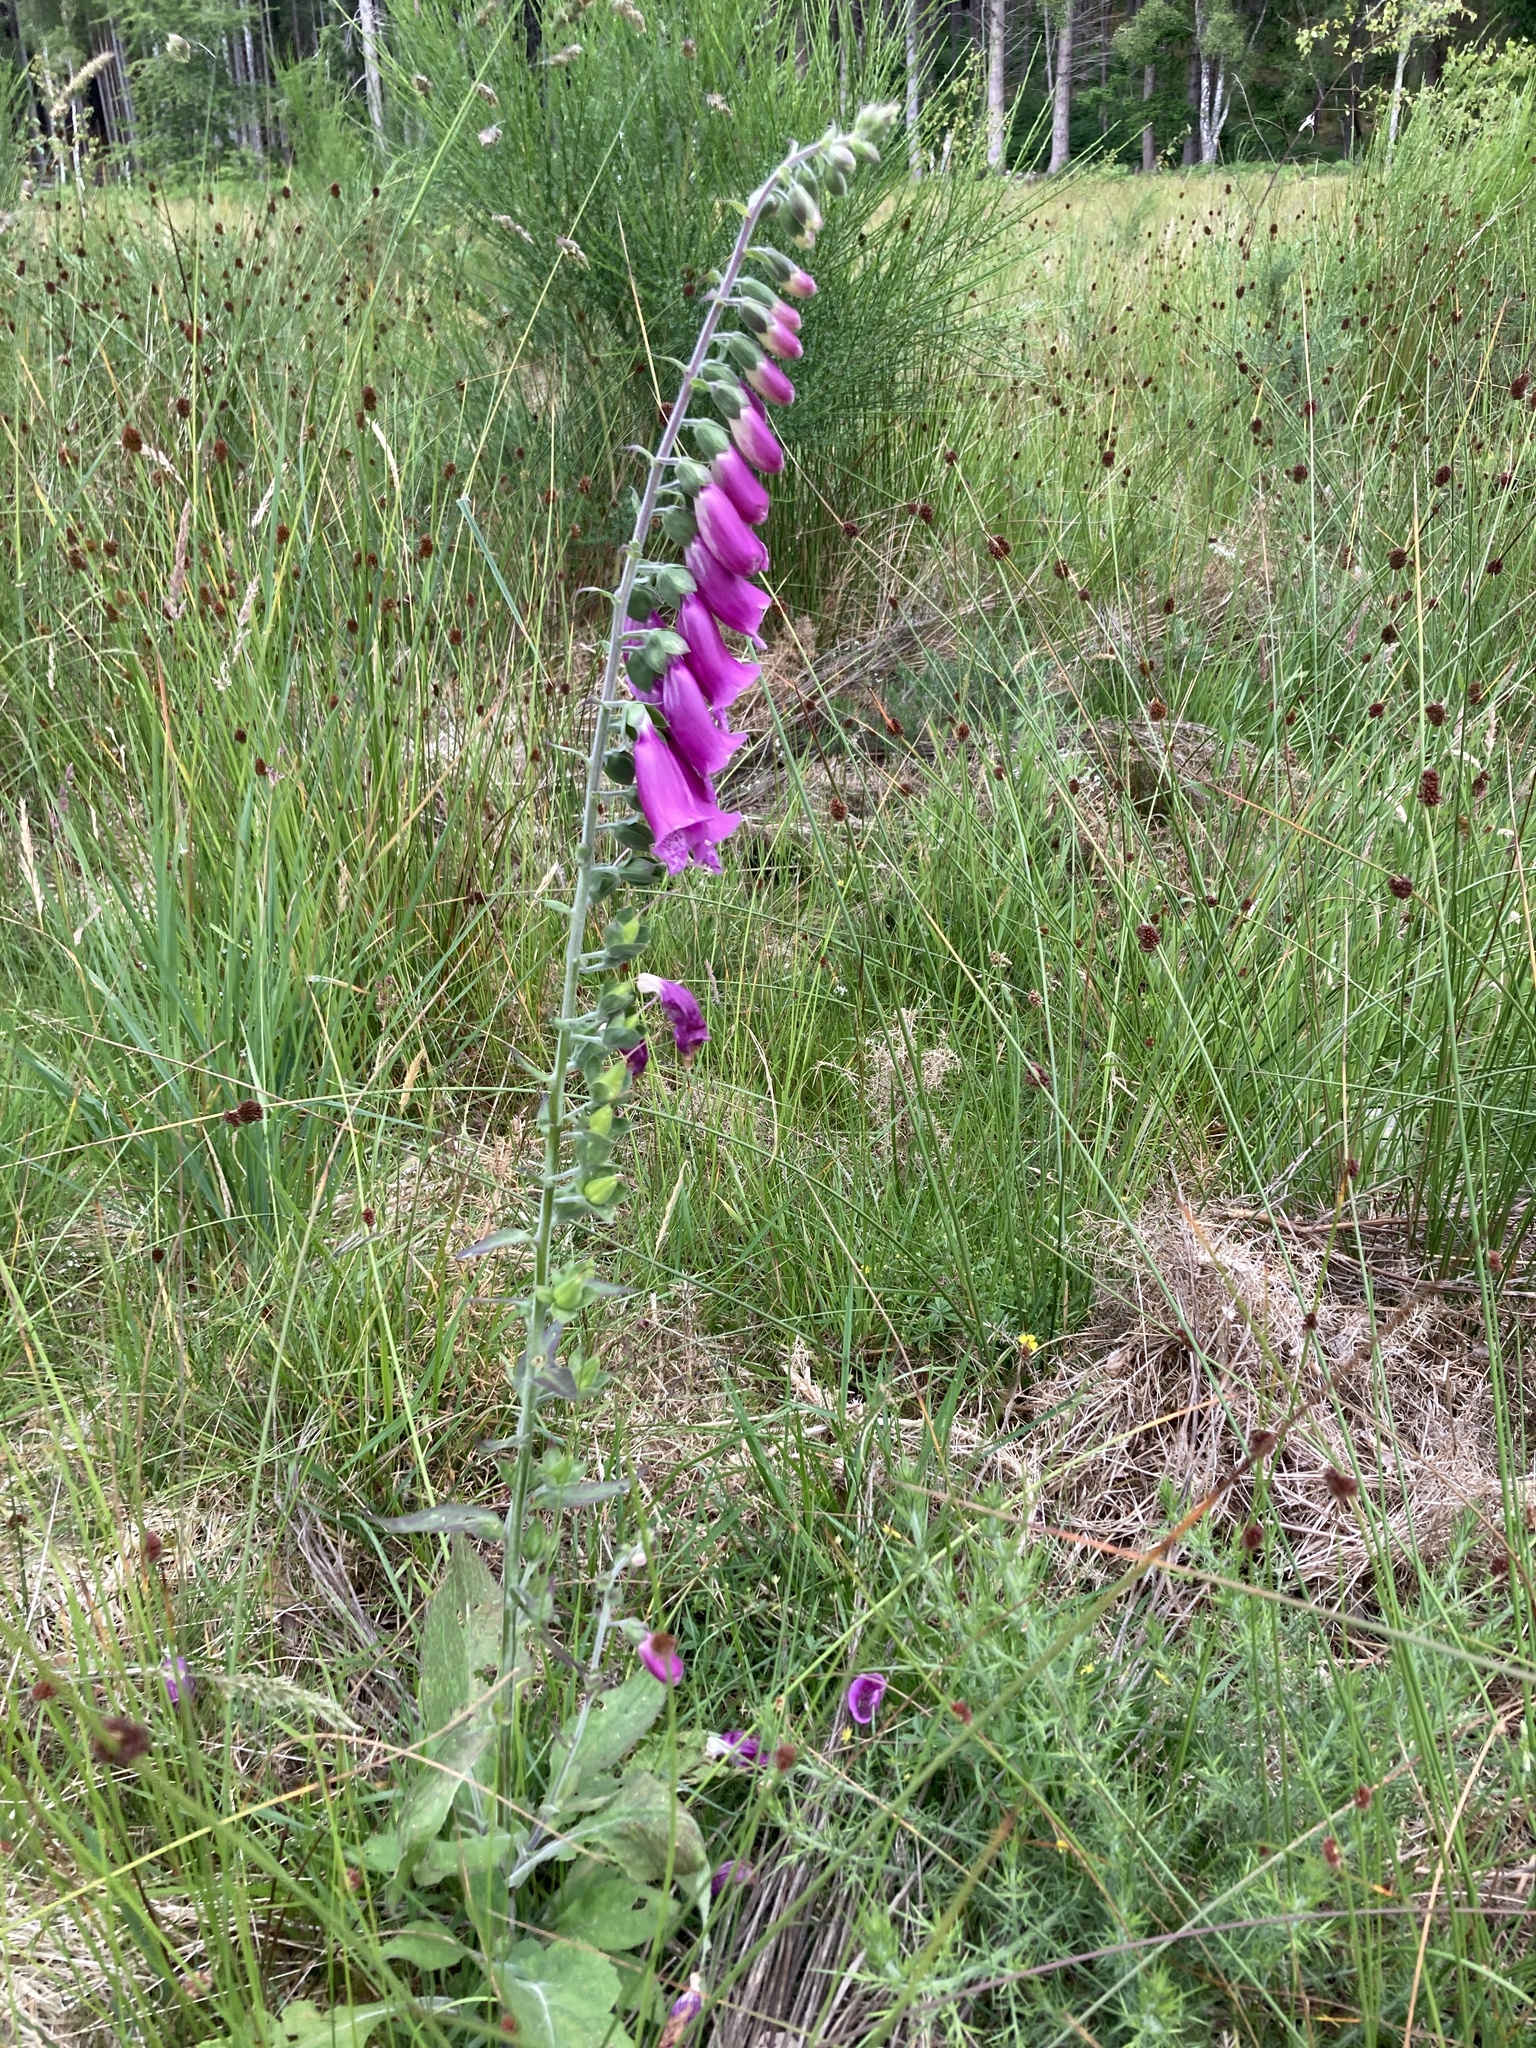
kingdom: Plantae
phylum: Tracheophyta
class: Magnoliopsida
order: Lamiales
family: Plantaginaceae
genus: Digitalis
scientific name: Digitalis purpurea
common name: Foxglove
